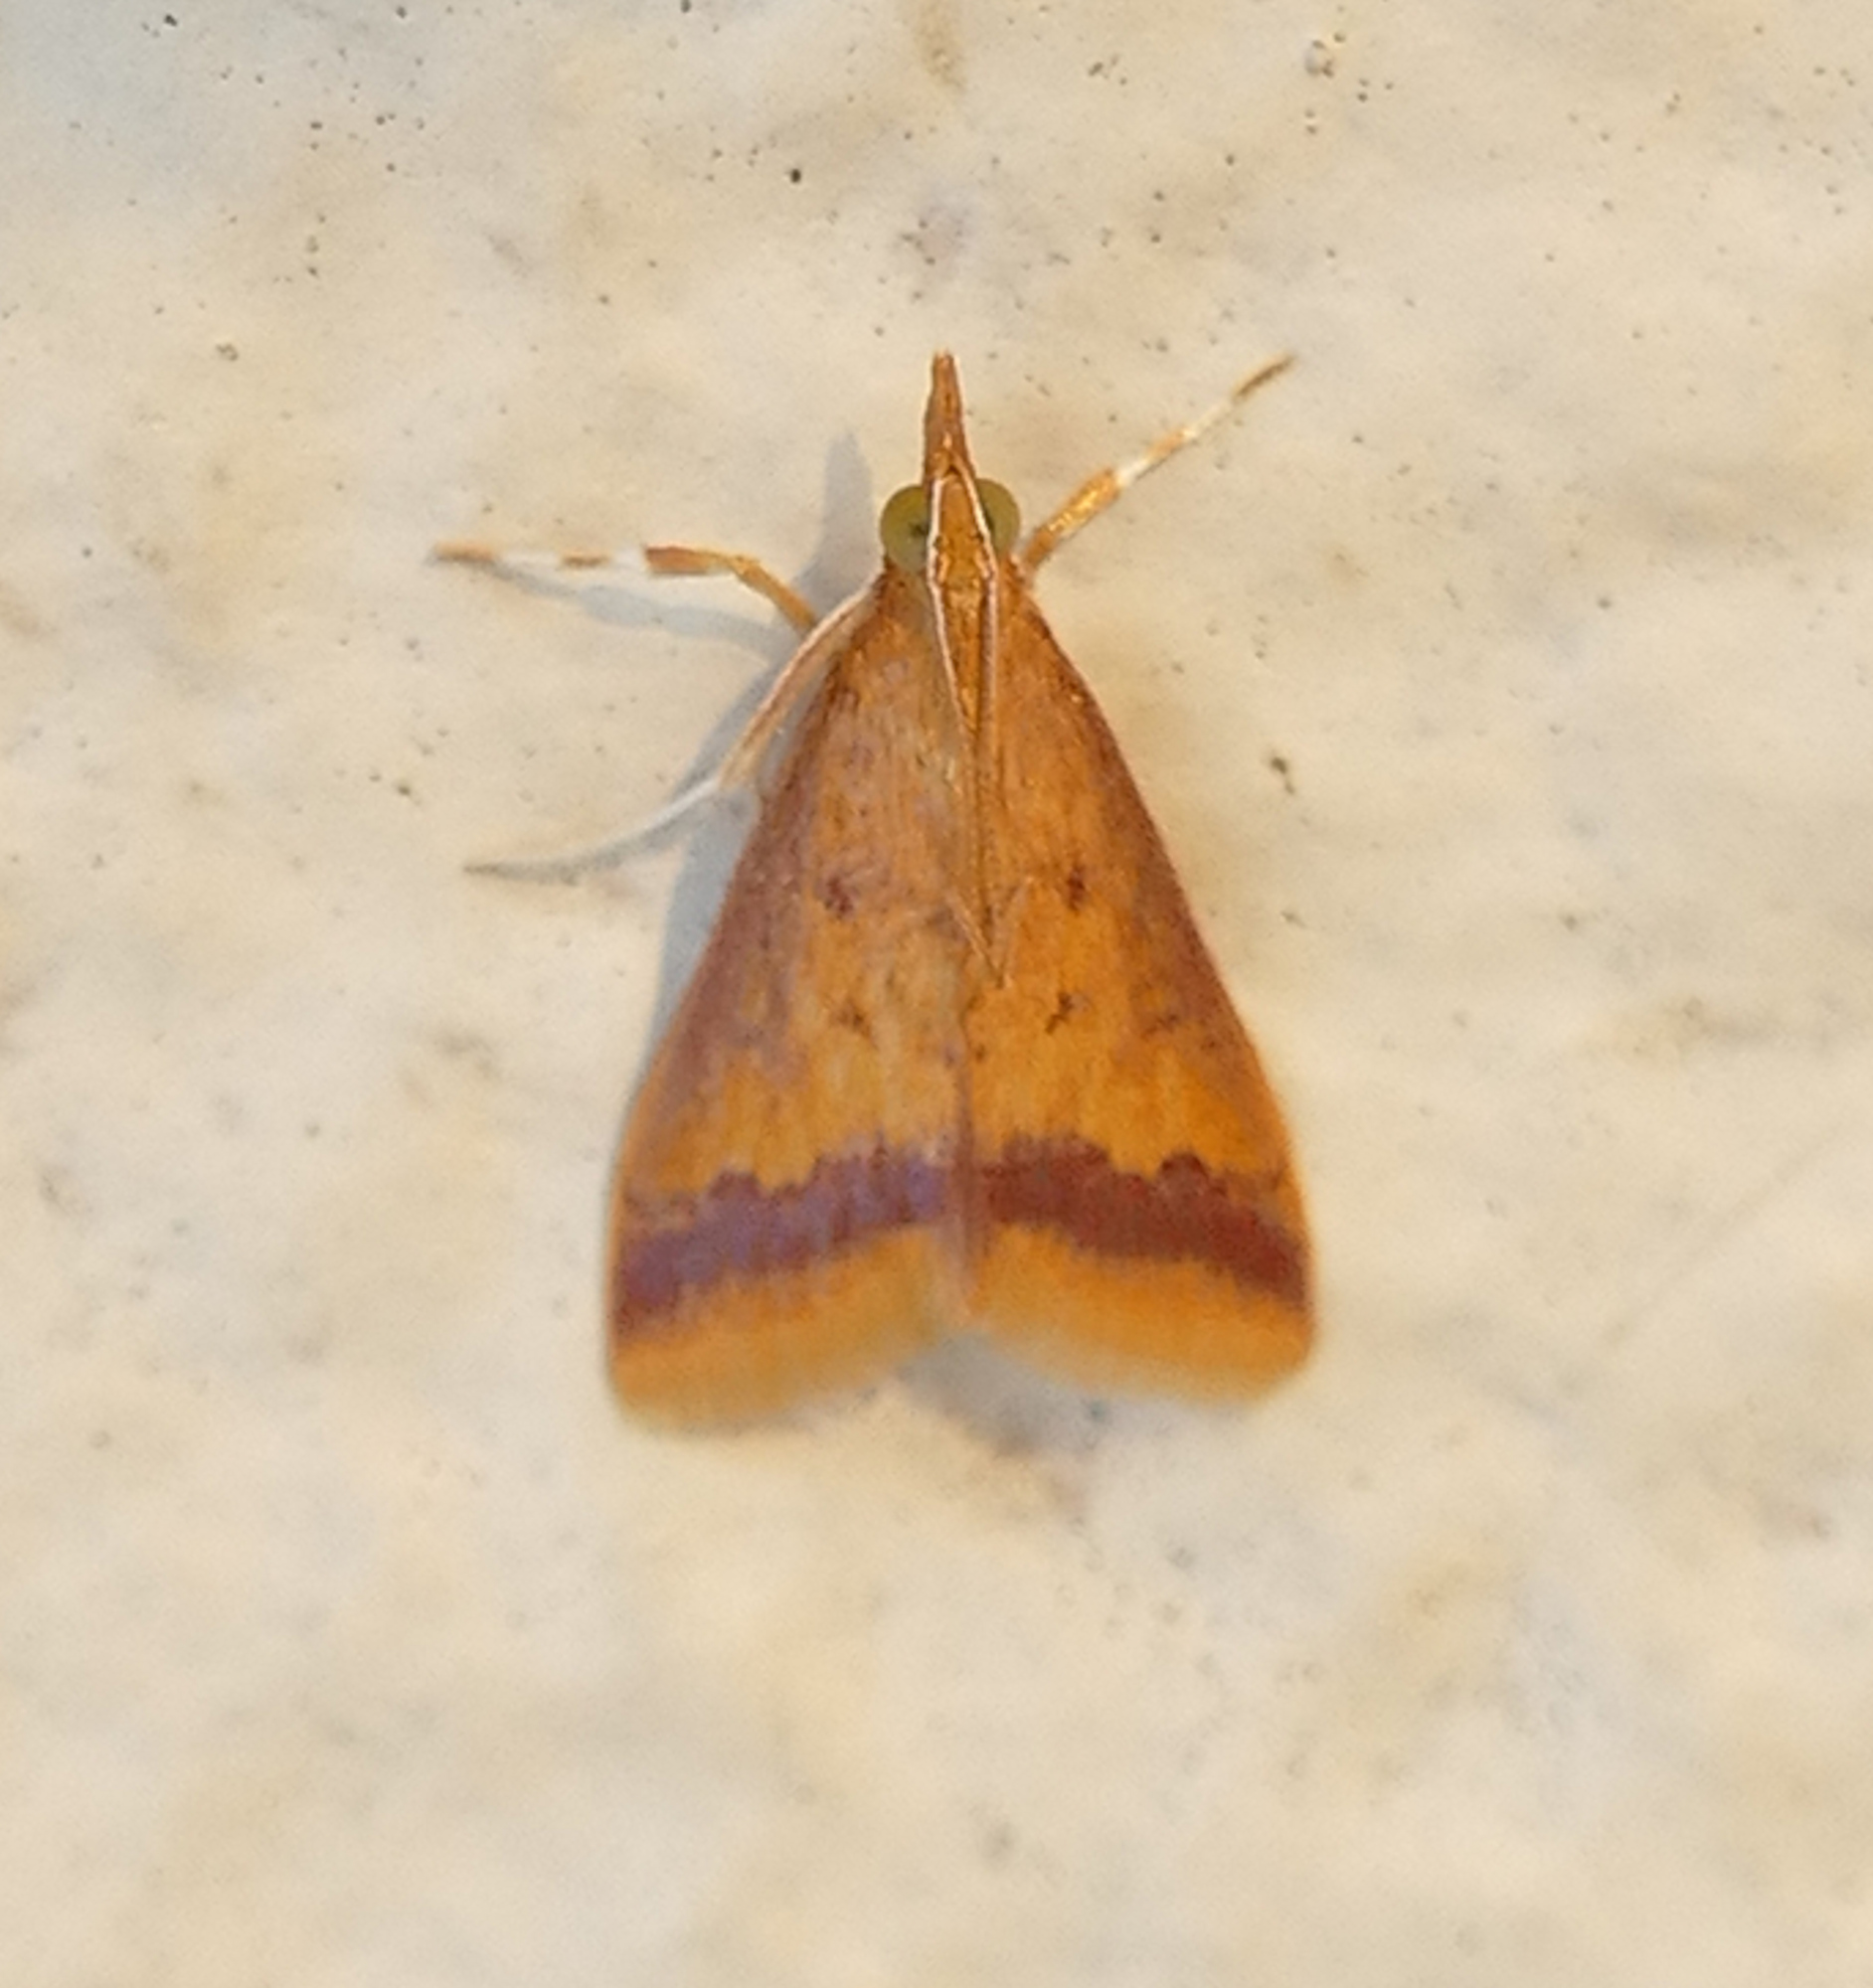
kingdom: Animalia
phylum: Arthropoda
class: Insecta
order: Lepidoptera
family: Crambidae
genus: Hyalorista
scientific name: Hyalorista taeniolalis
